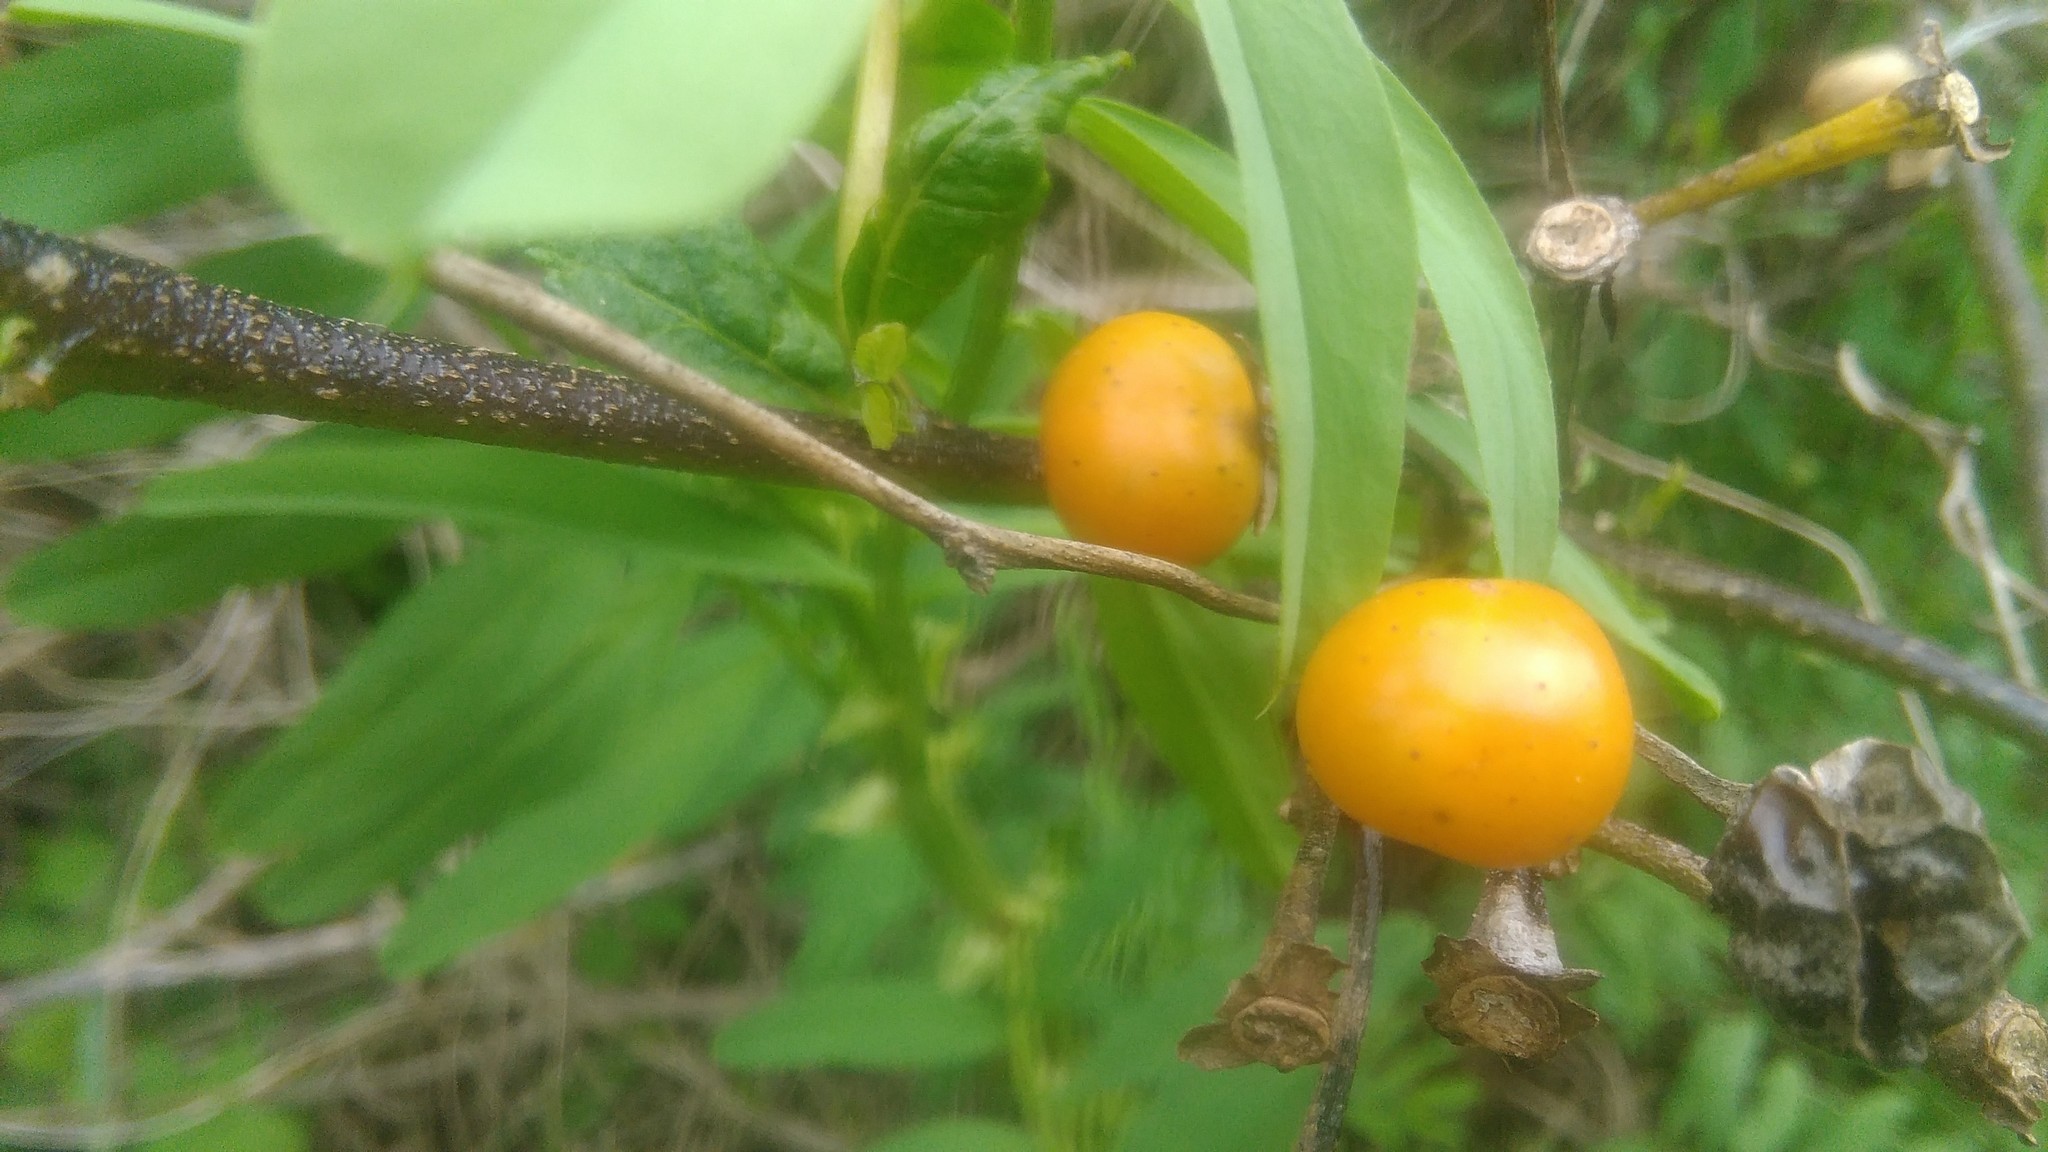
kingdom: Plantae
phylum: Tracheophyta
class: Magnoliopsida
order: Solanales
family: Solanaceae
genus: Solanum
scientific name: Solanum bonariense
